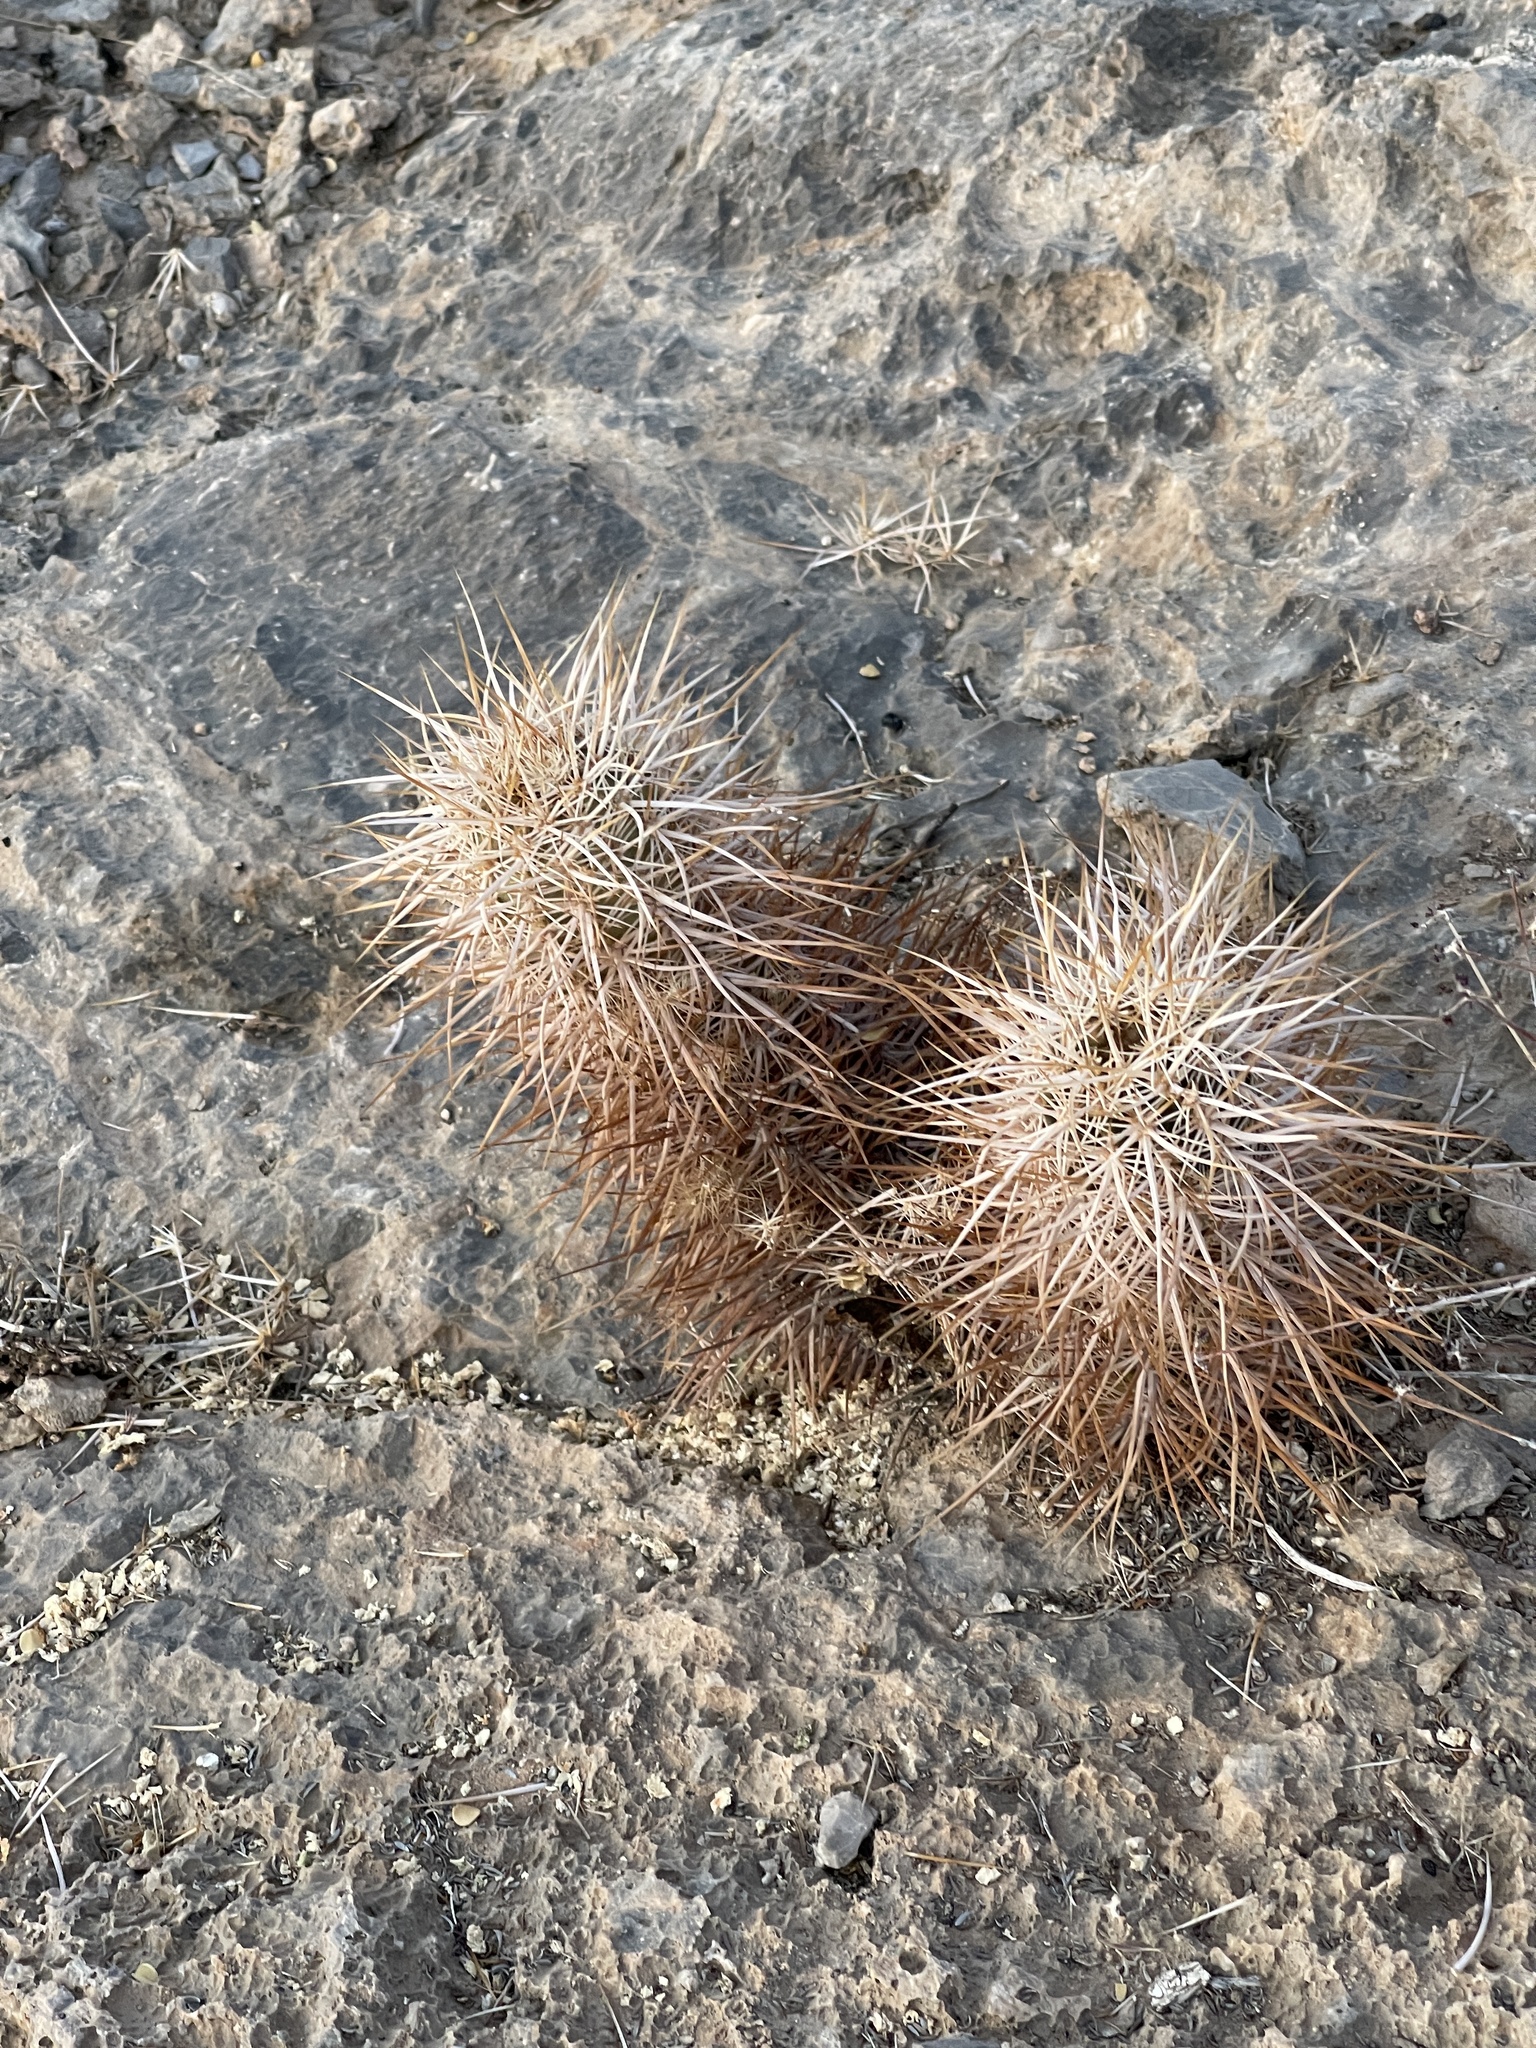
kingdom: Plantae
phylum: Tracheophyta
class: Magnoliopsida
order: Caryophyllales
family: Cactaceae
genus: Echinocereus
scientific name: Echinocereus engelmannii
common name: Engelmann's hedgehog cactus
